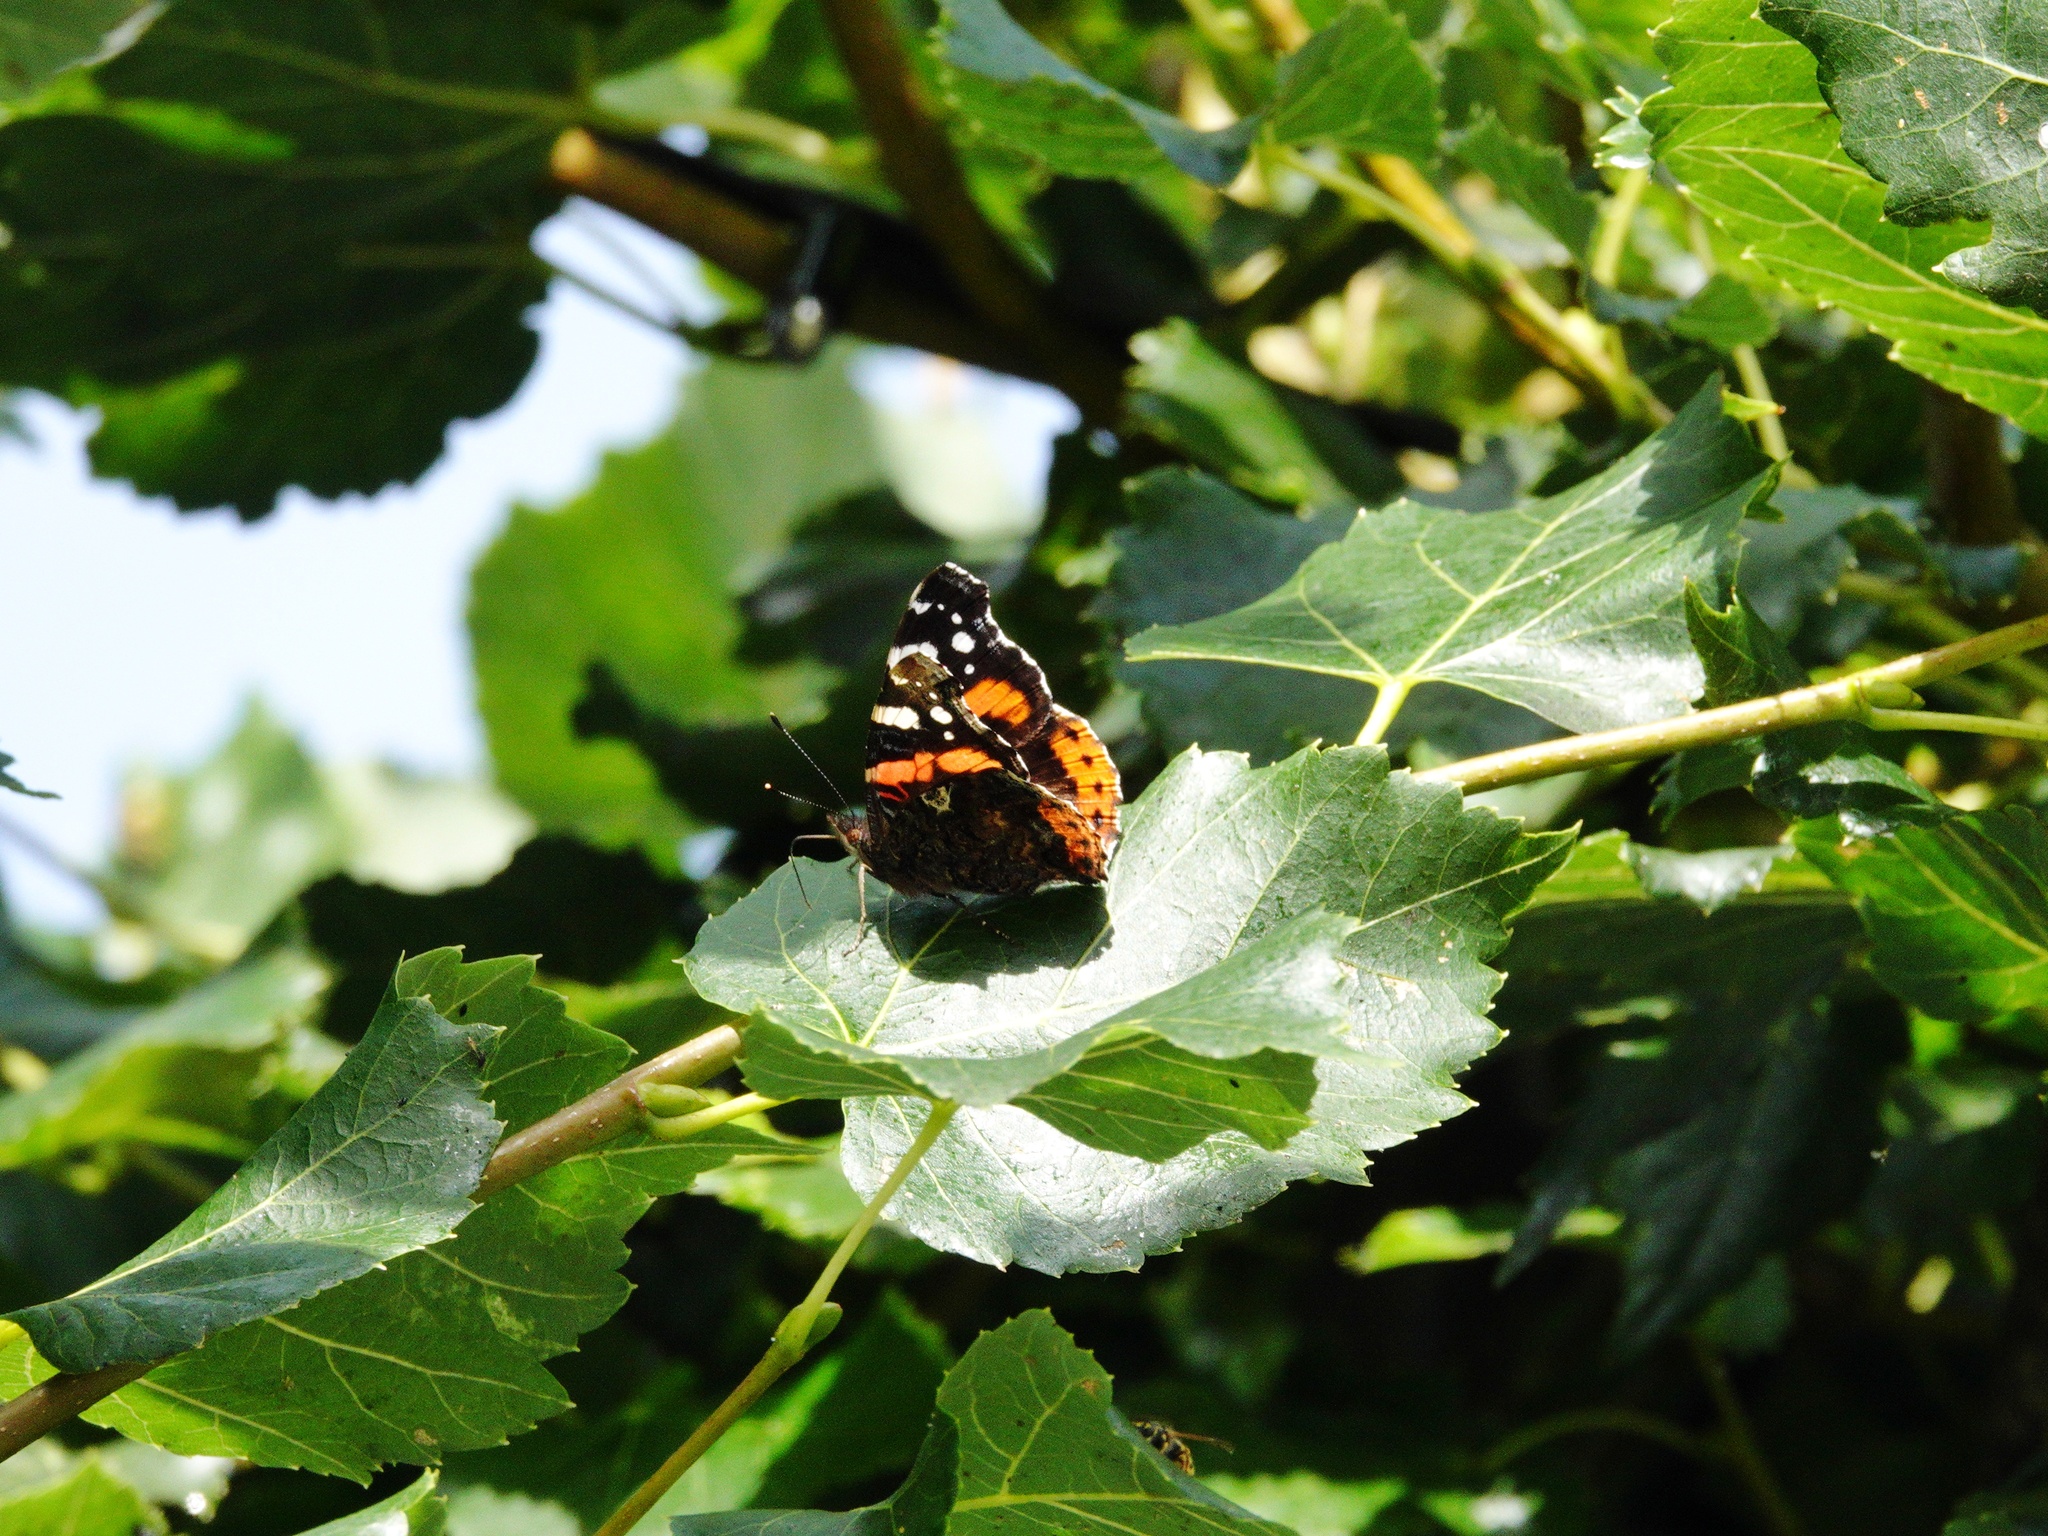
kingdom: Animalia
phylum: Arthropoda
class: Insecta
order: Lepidoptera
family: Nymphalidae
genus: Vanessa
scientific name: Vanessa atalanta
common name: Red admiral
